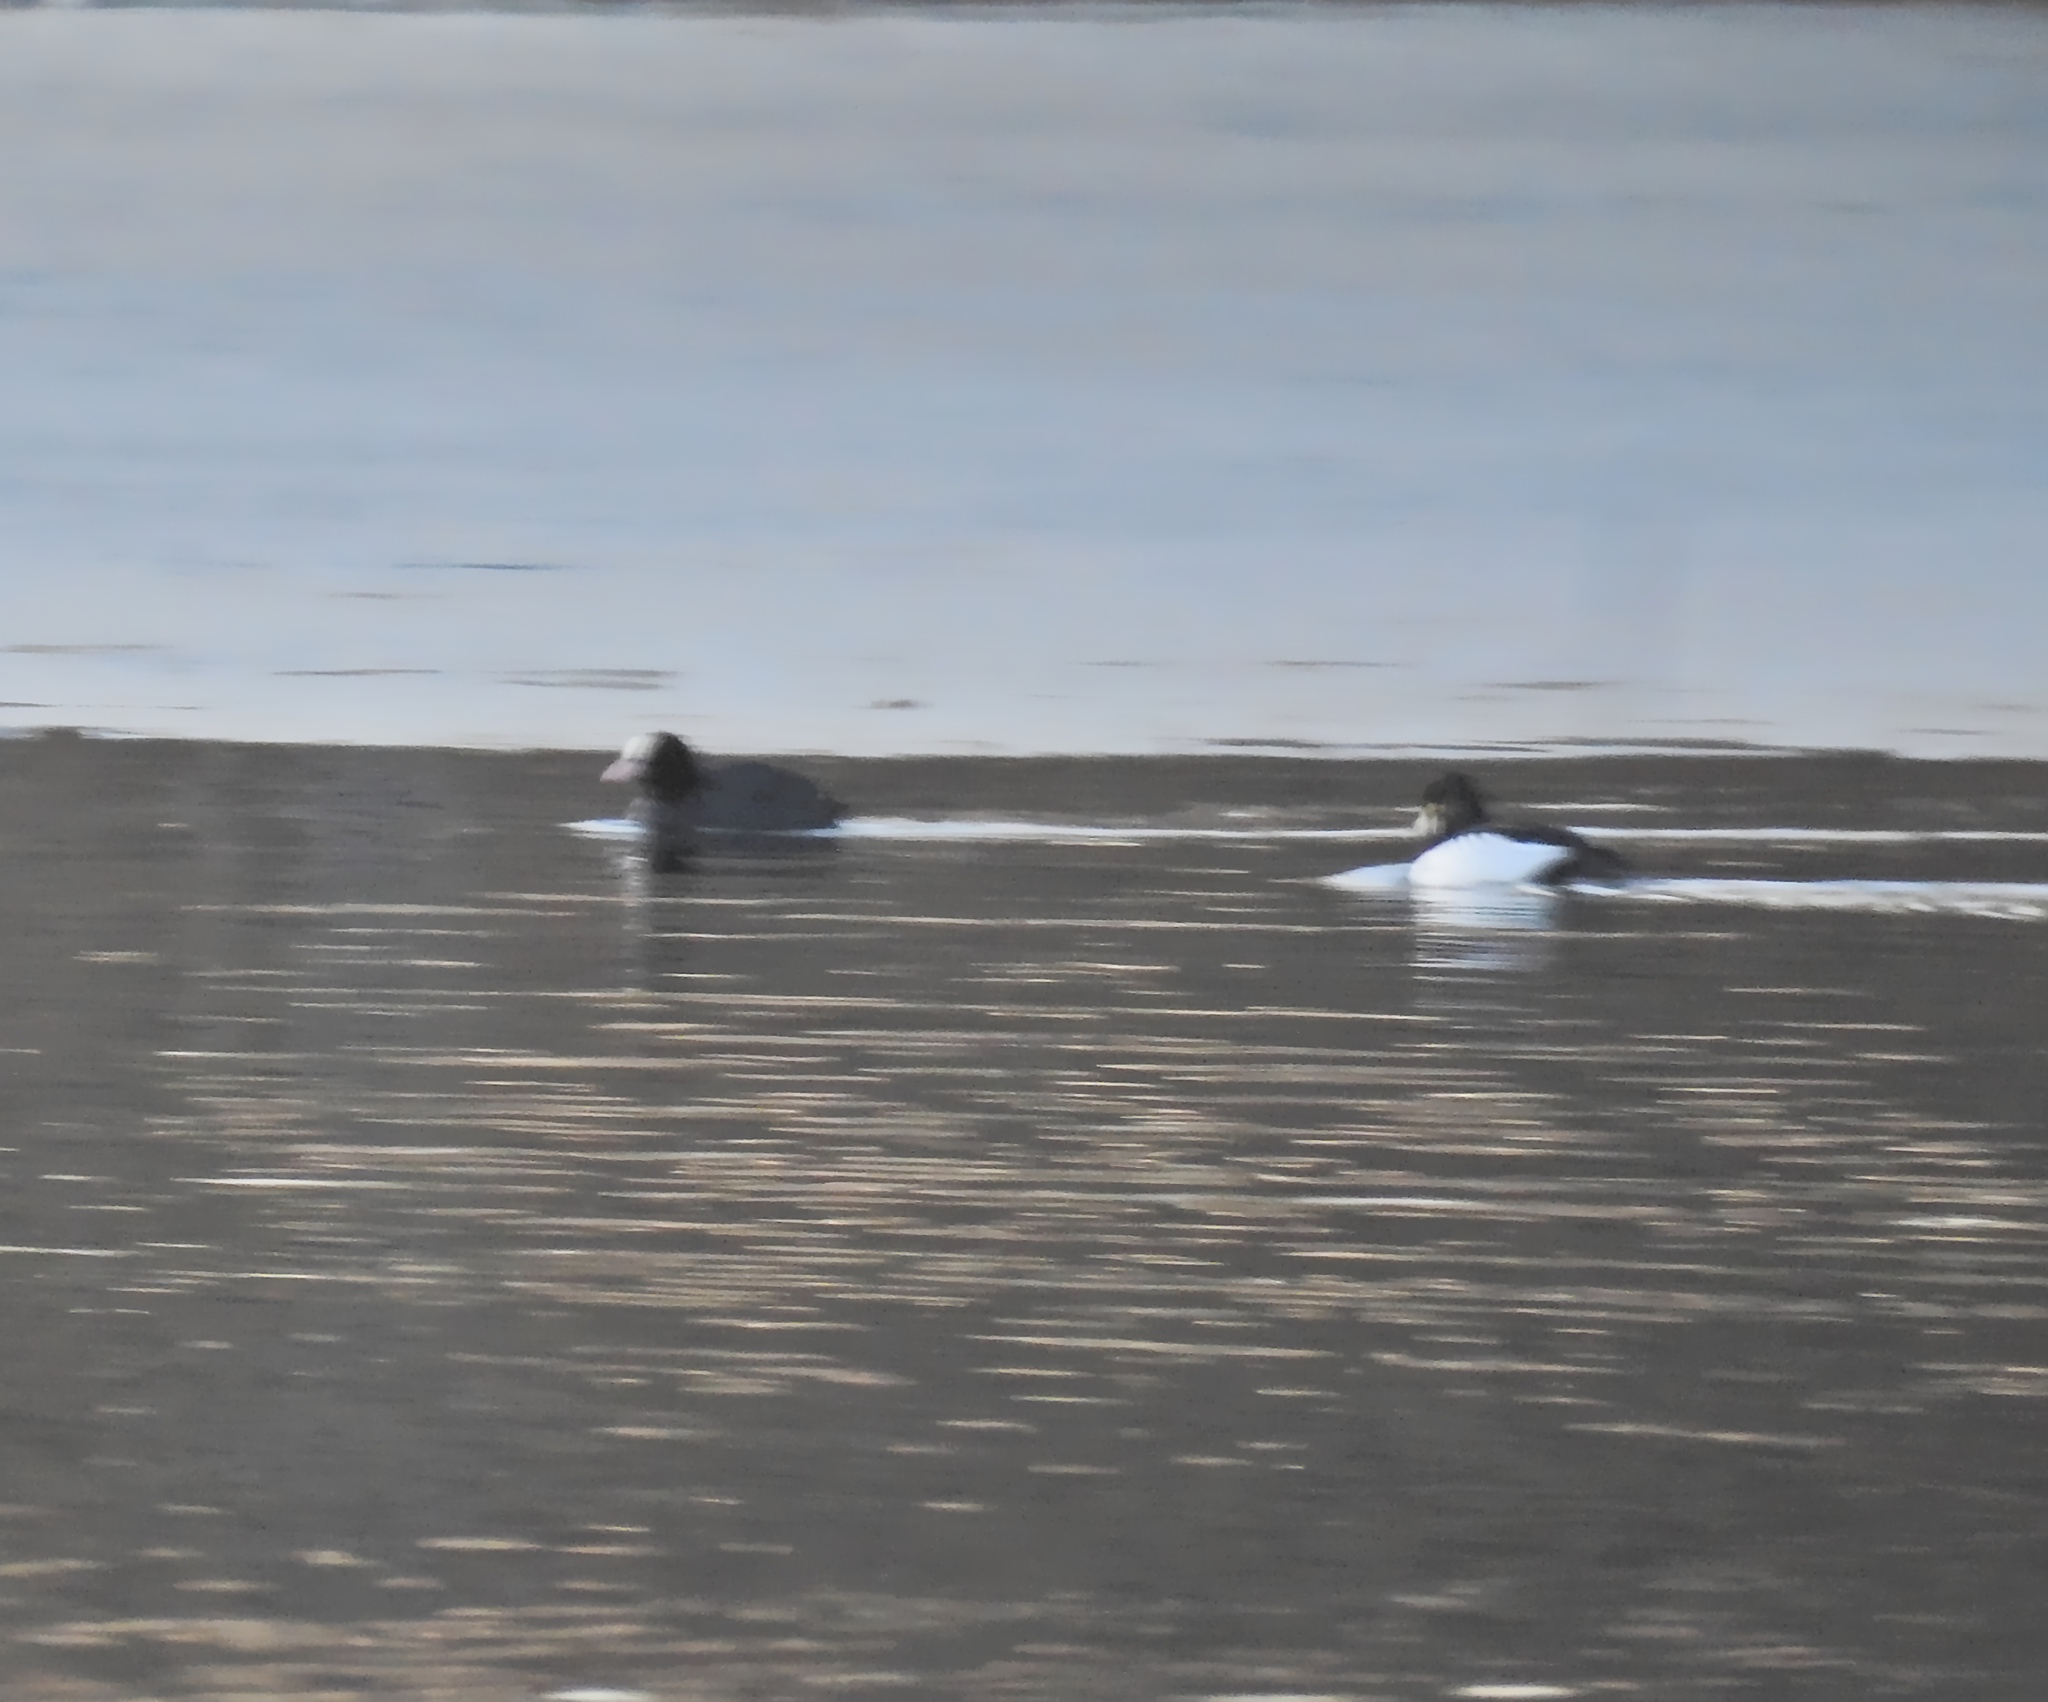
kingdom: Animalia
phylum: Chordata
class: Aves
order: Anseriformes
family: Anatidae
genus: Bucephala
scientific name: Bucephala clangula
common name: Common goldeneye
